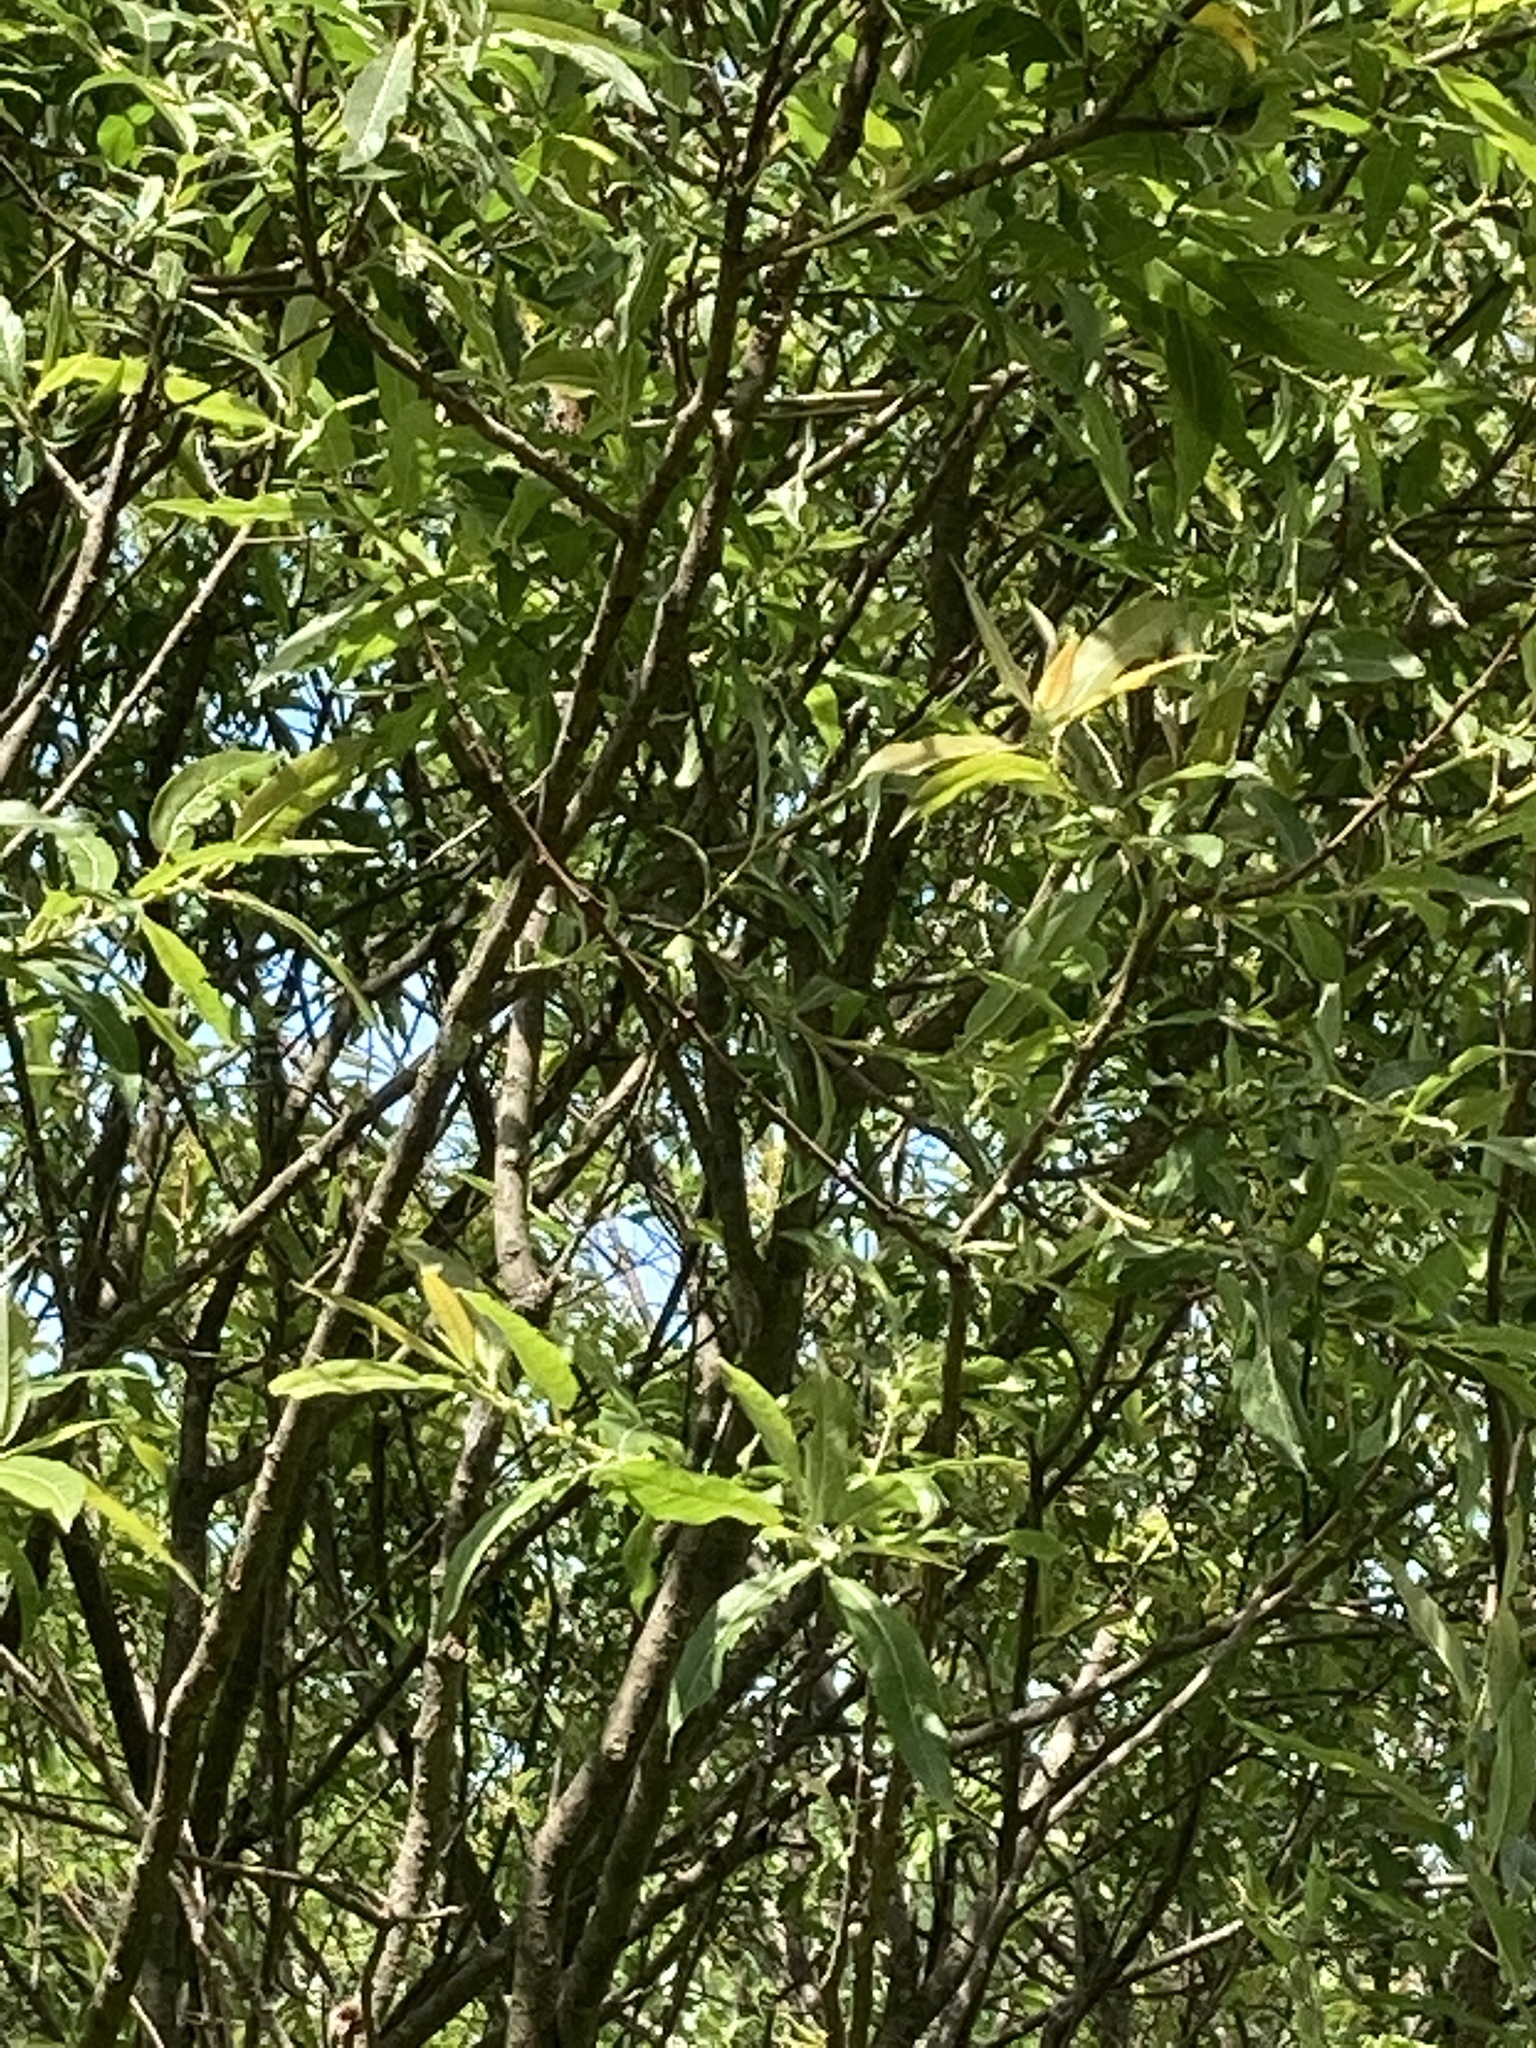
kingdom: Plantae
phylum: Tracheophyta
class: Magnoliopsida
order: Malpighiales
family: Salicaceae
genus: Salix
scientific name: Salix eriocephala
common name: Heart-leaved willow
